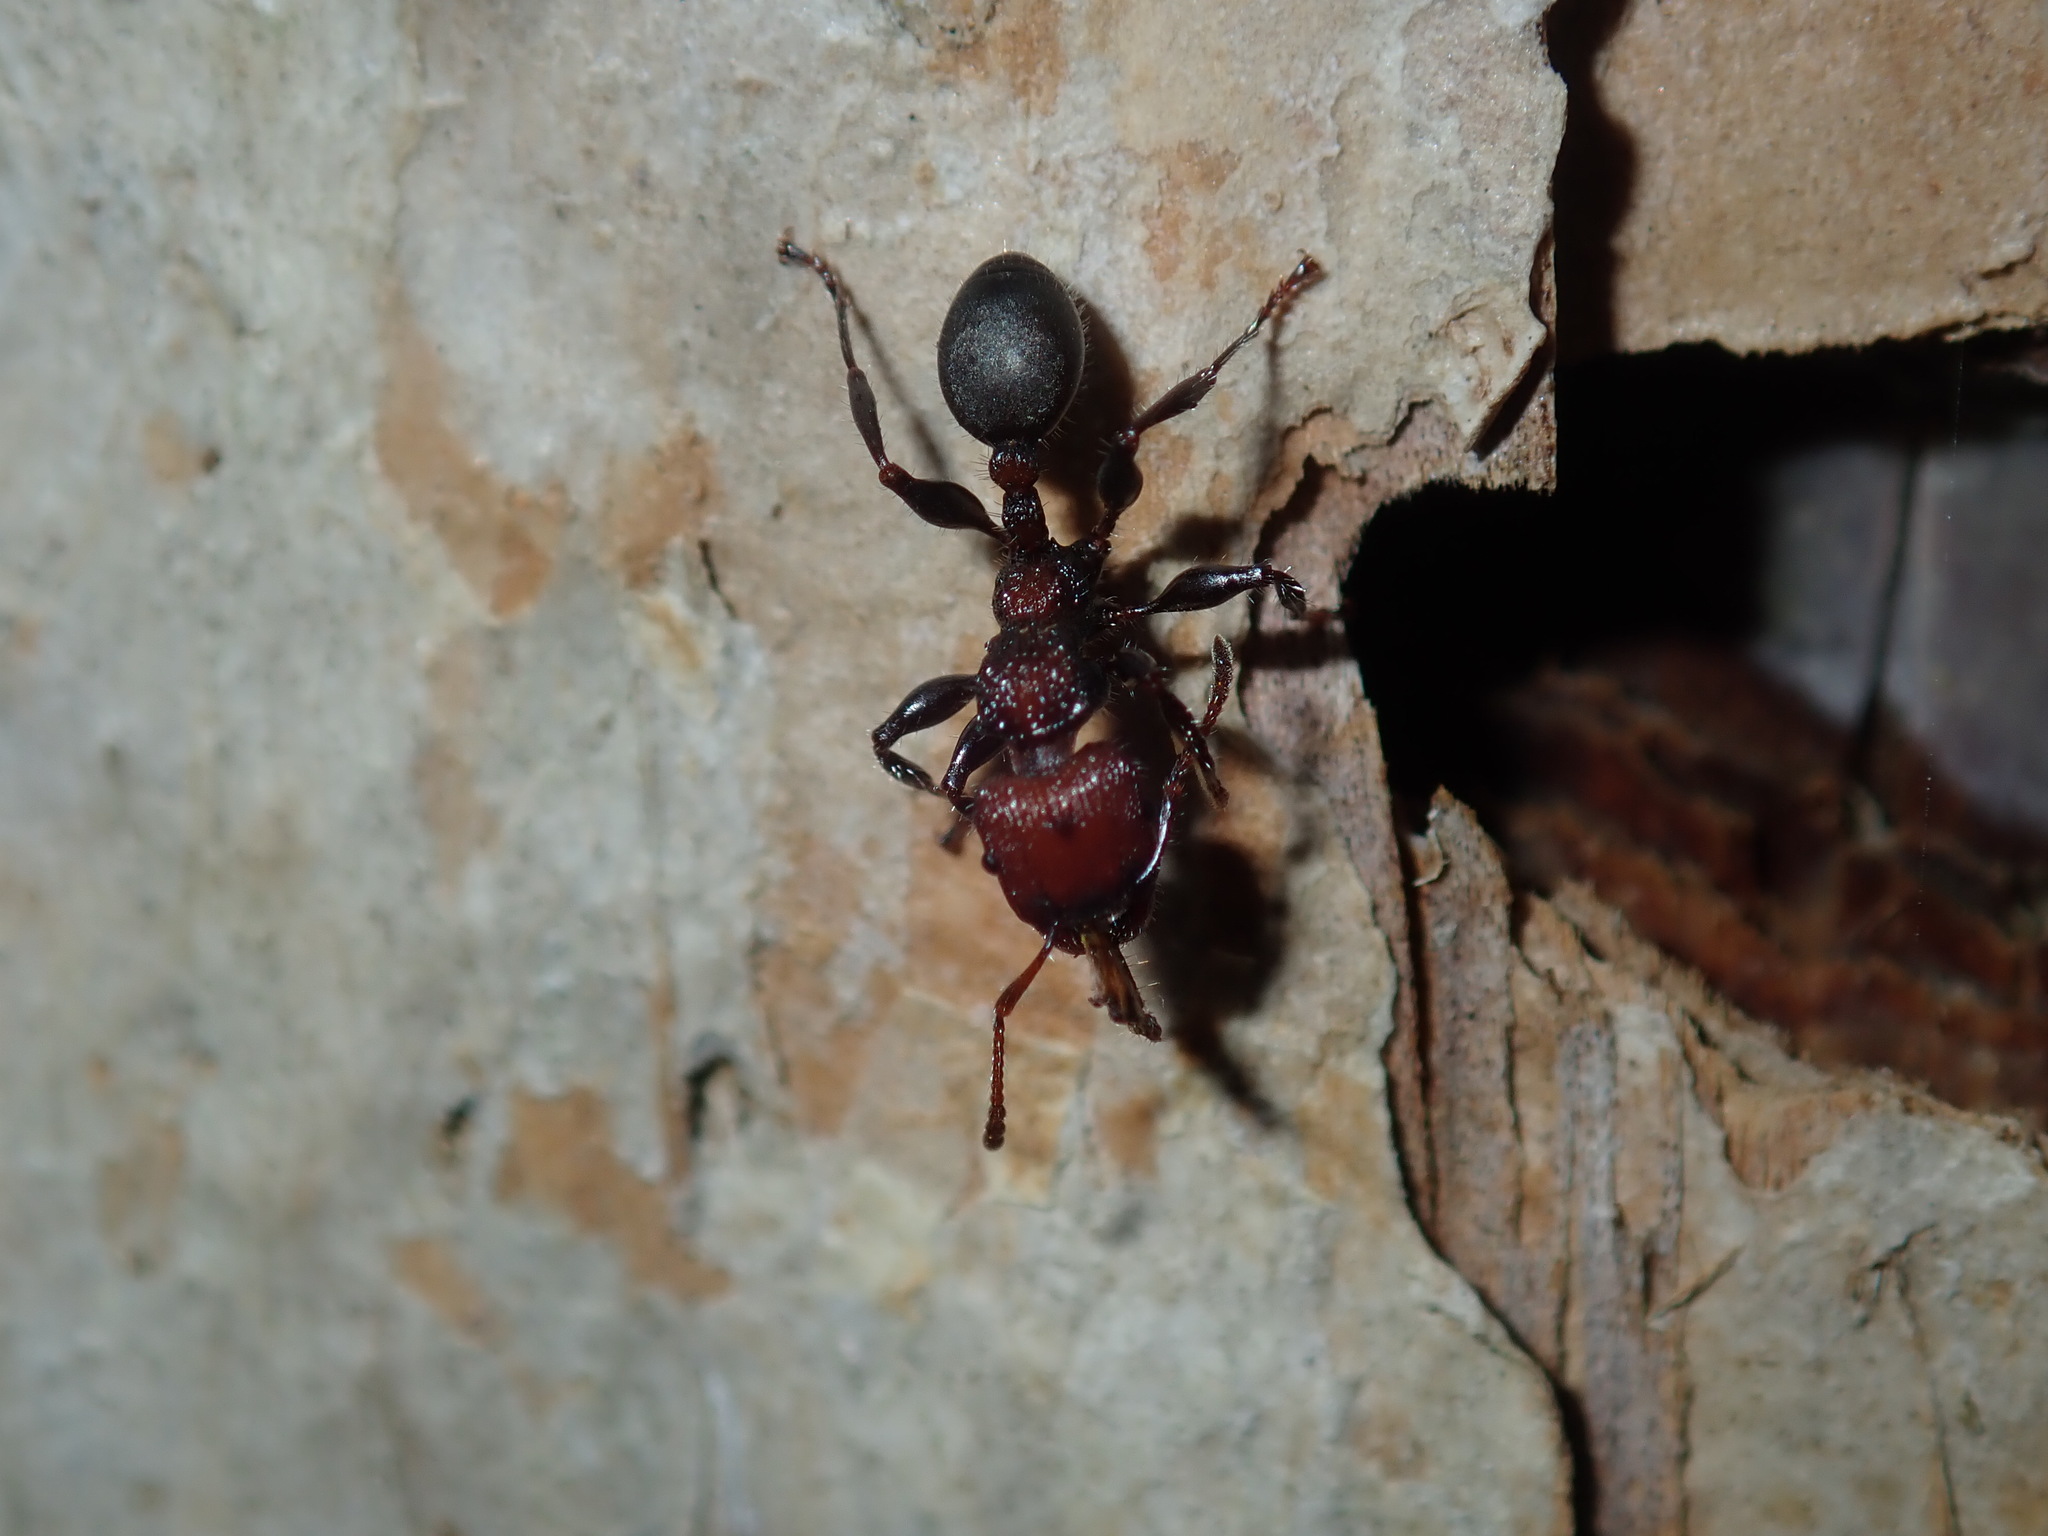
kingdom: Animalia
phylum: Arthropoda
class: Insecta
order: Hymenoptera
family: Formicidae
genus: Podomyrma
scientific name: Podomyrma micans
